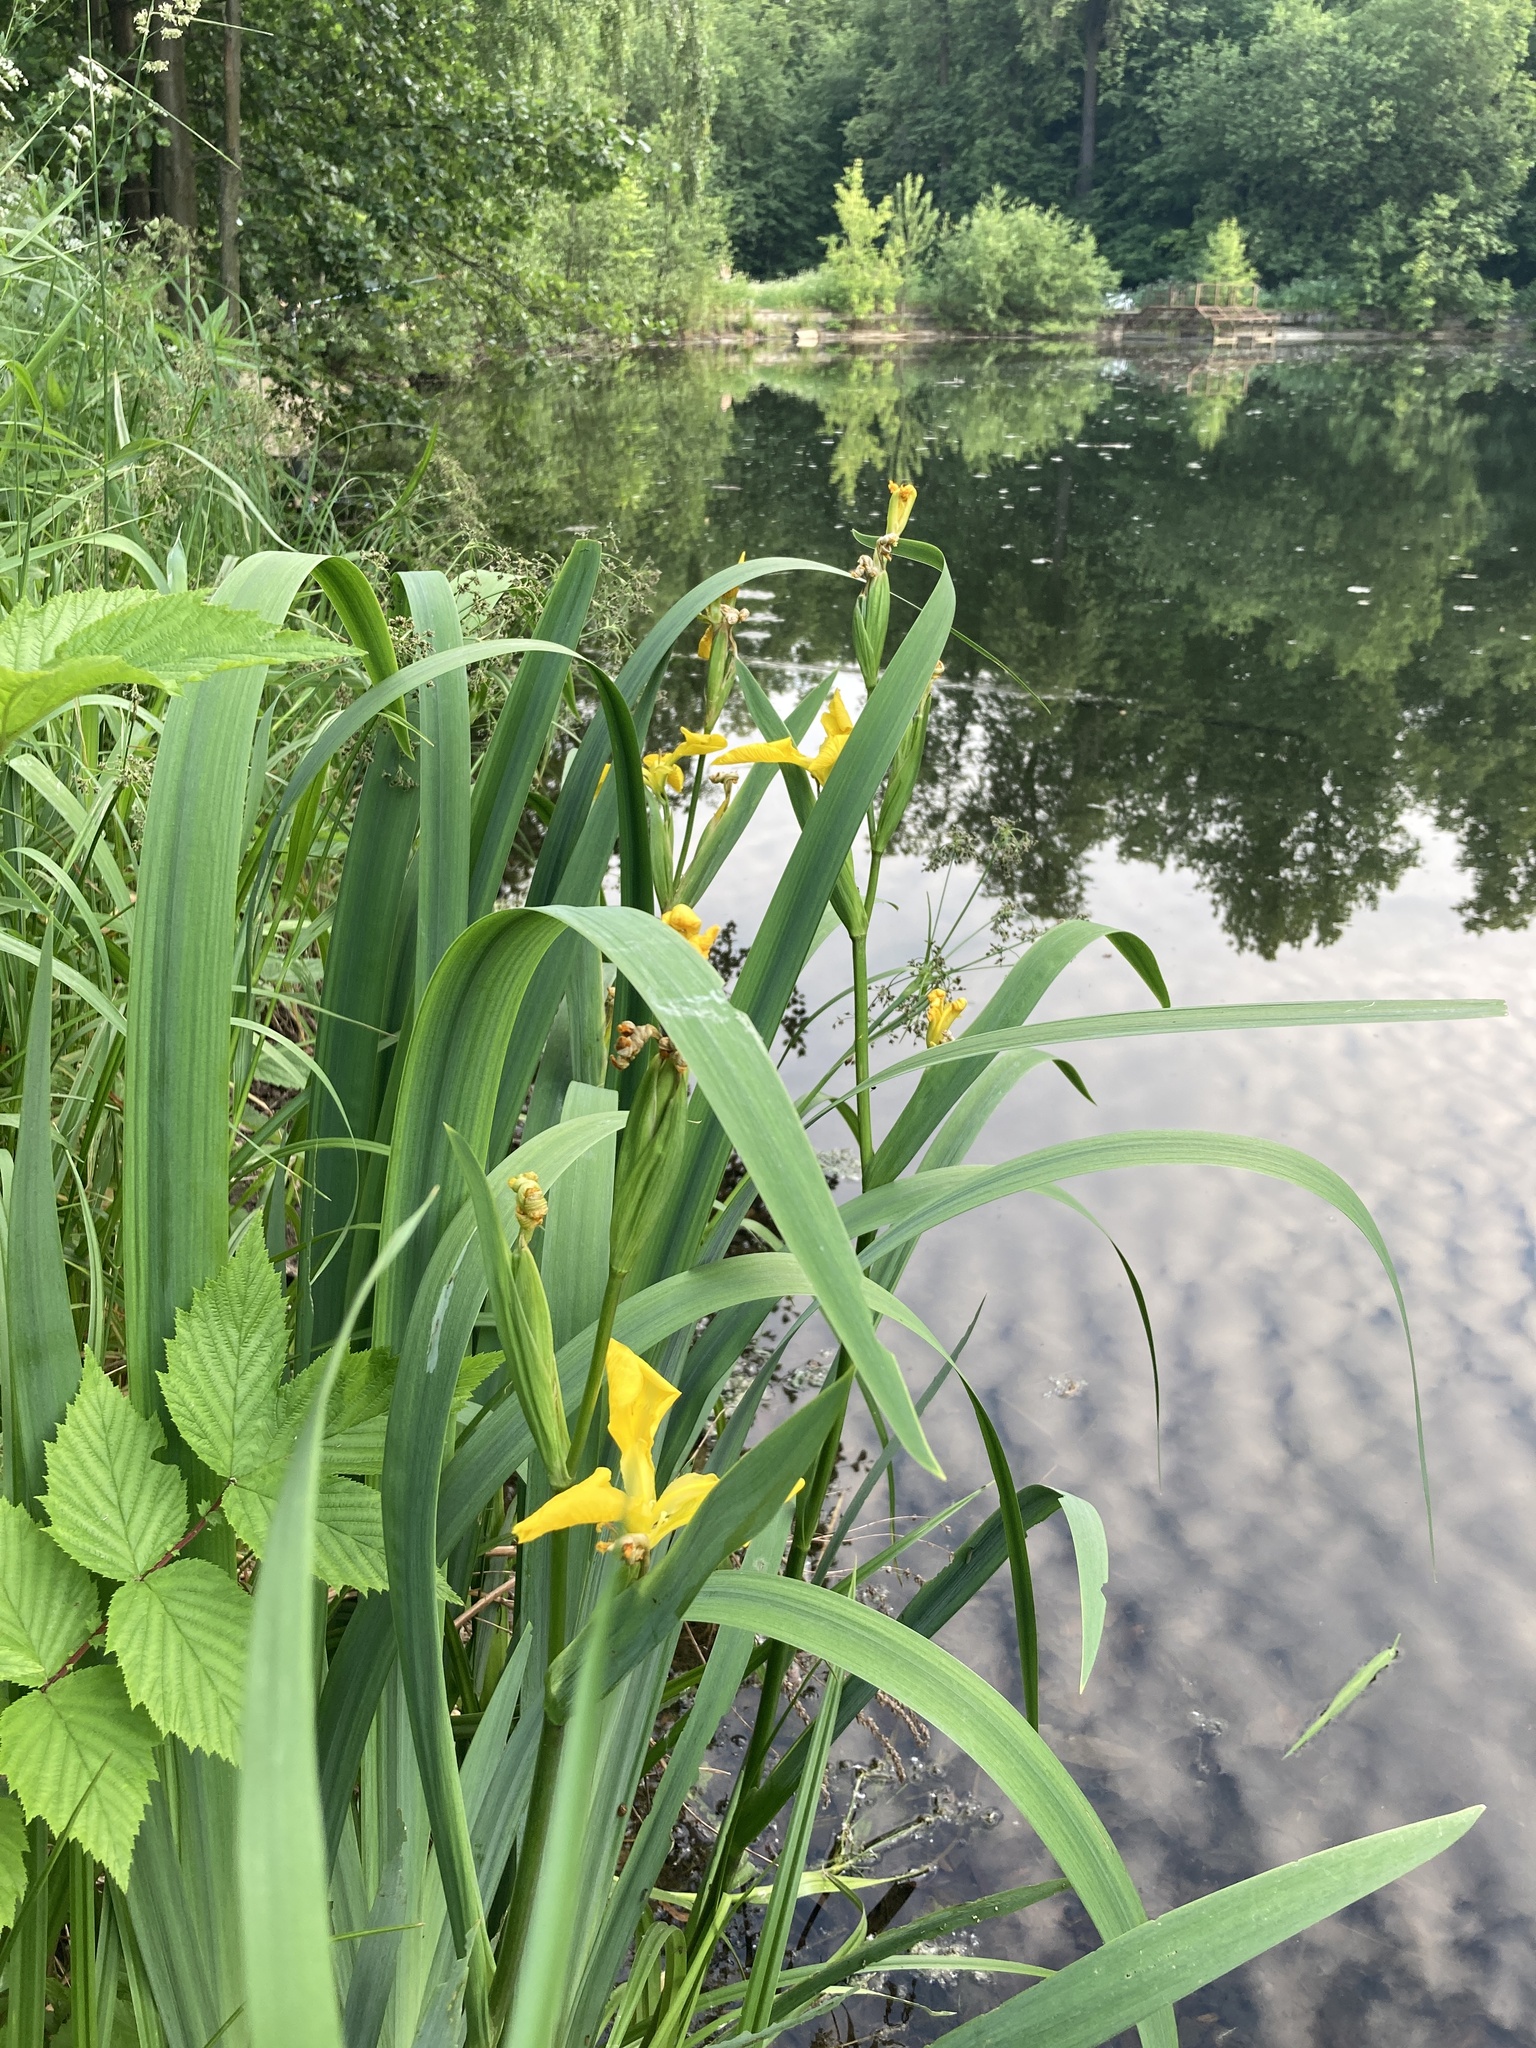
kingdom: Plantae
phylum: Tracheophyta
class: Liliopsida
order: Asparagales
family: Iridaceae
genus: Iris
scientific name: Iris pseudacorus
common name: Yellow flag
